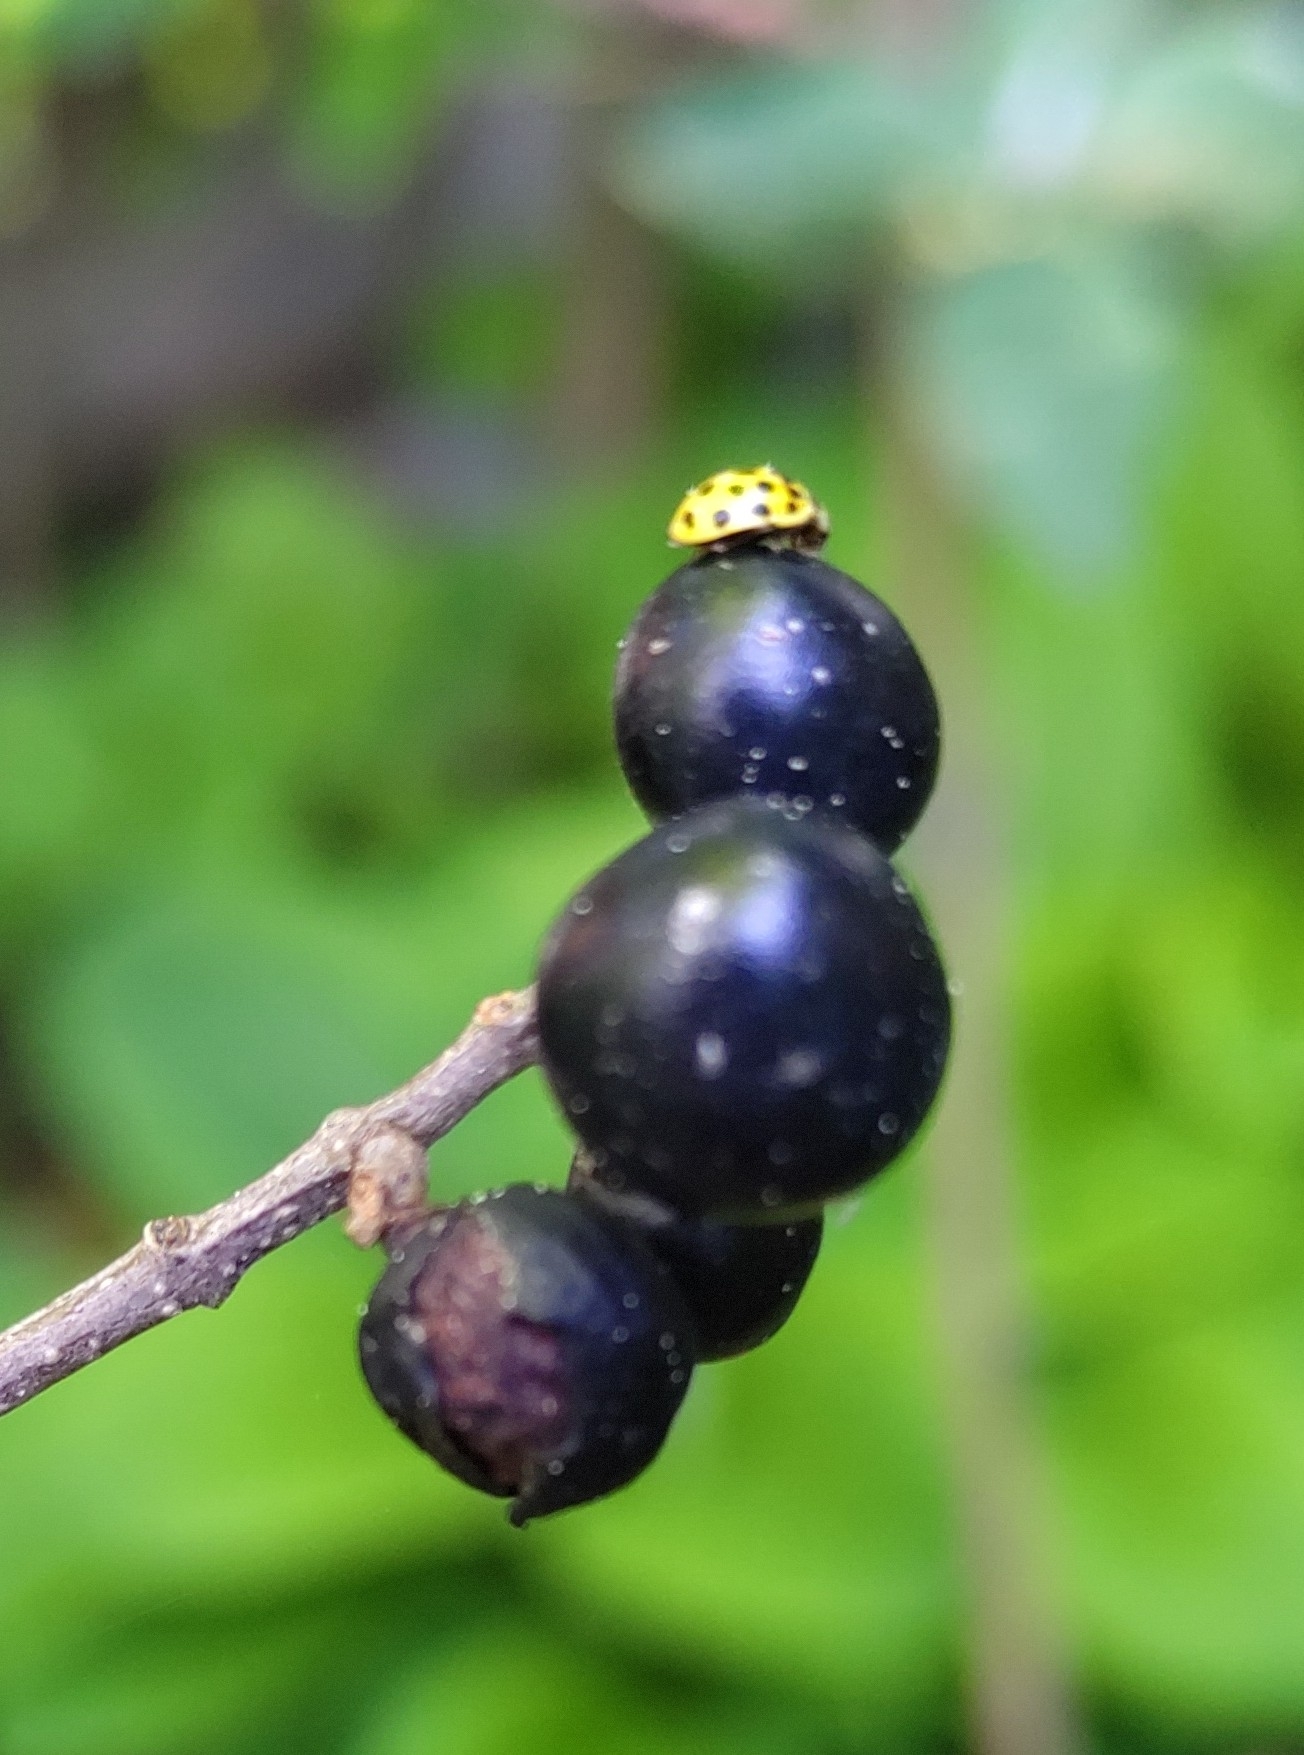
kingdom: Animalia
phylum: Arthropoda
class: Insecta
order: Coleoptera
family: Coccinellidae
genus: Psyllobora
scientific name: Psyllobora vigintiduopunctata
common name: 22-spot ladybird
